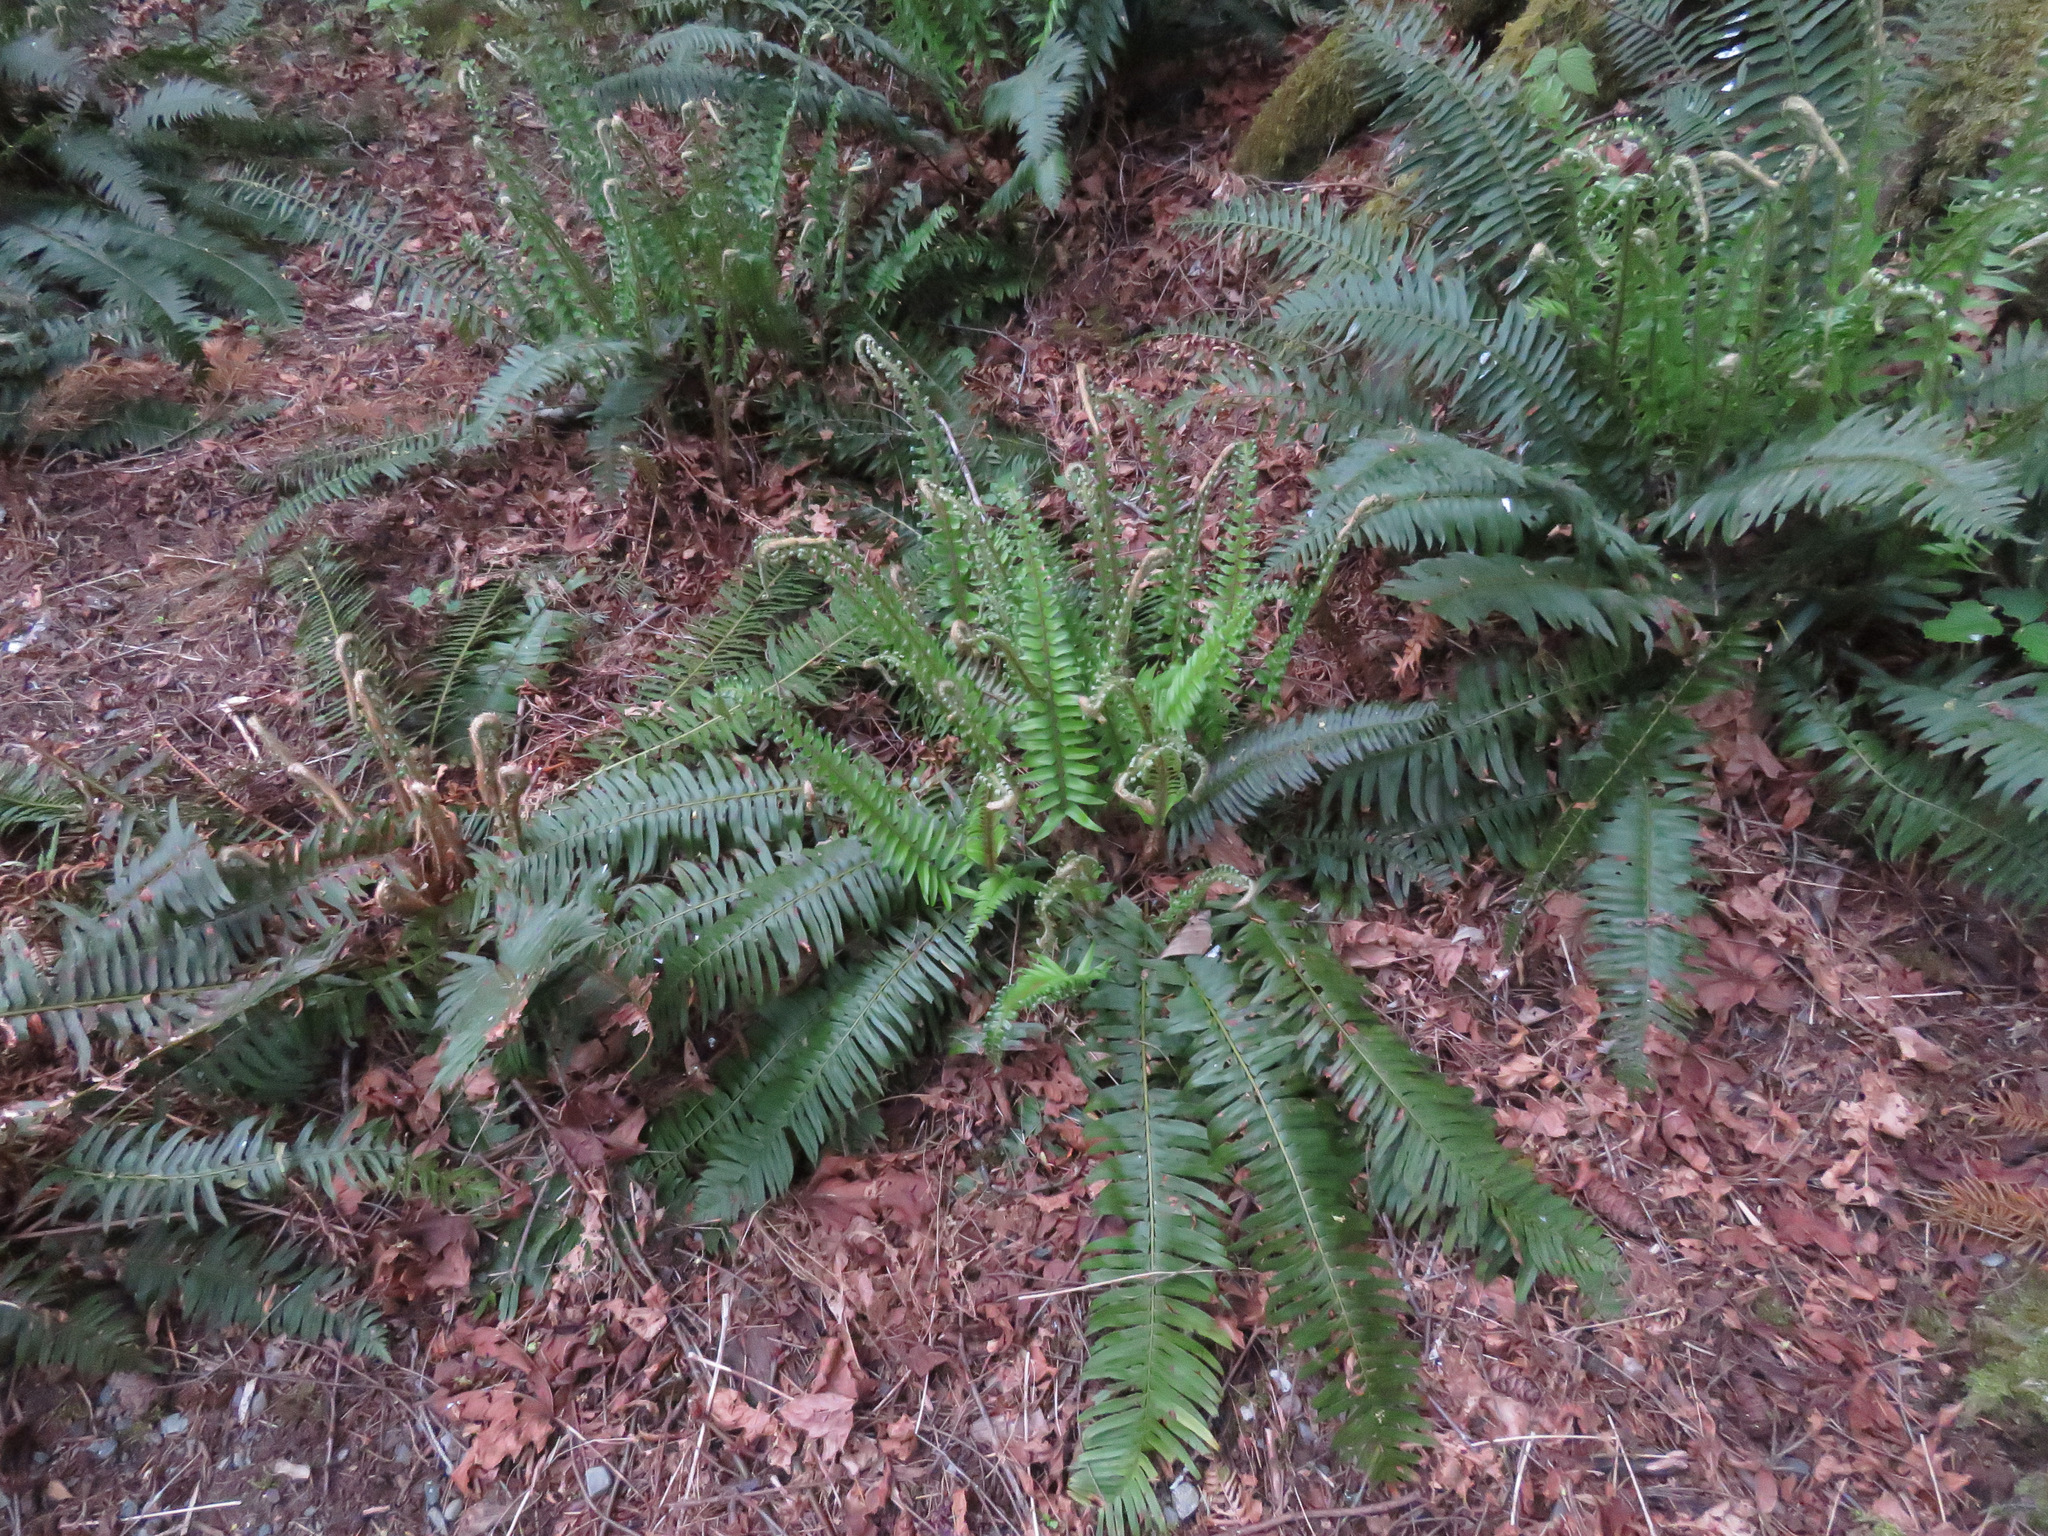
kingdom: Plantae
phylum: Tracheophyta
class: Polypodiopsida
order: Polypodiales
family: Dryopteridaceae
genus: Polystichum
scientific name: Polystichum munitum
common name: Western sword-fern
